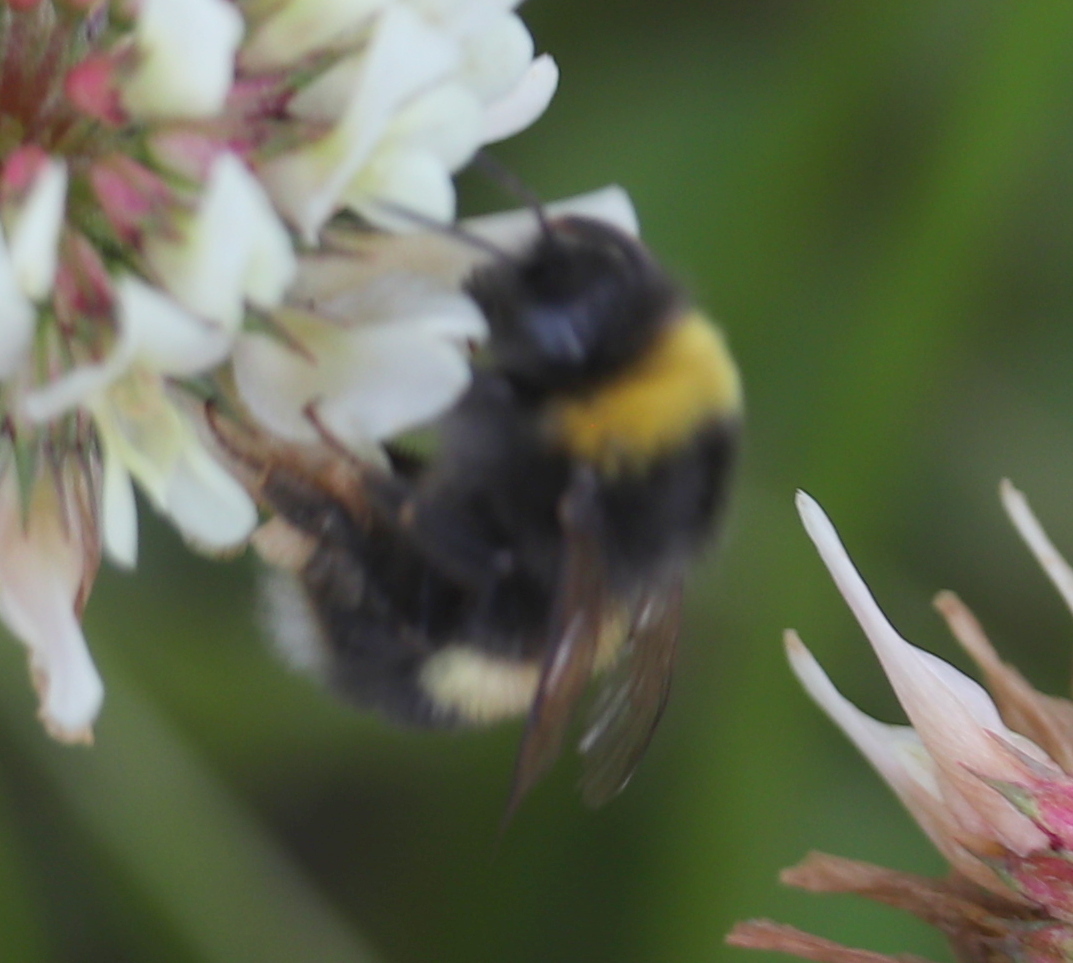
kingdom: Animalia
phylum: Arthropoda
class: Insecta
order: Hymenoptera
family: Apidae
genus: Bombus
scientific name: Bombus lucorum
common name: White-tailed bumblebee
